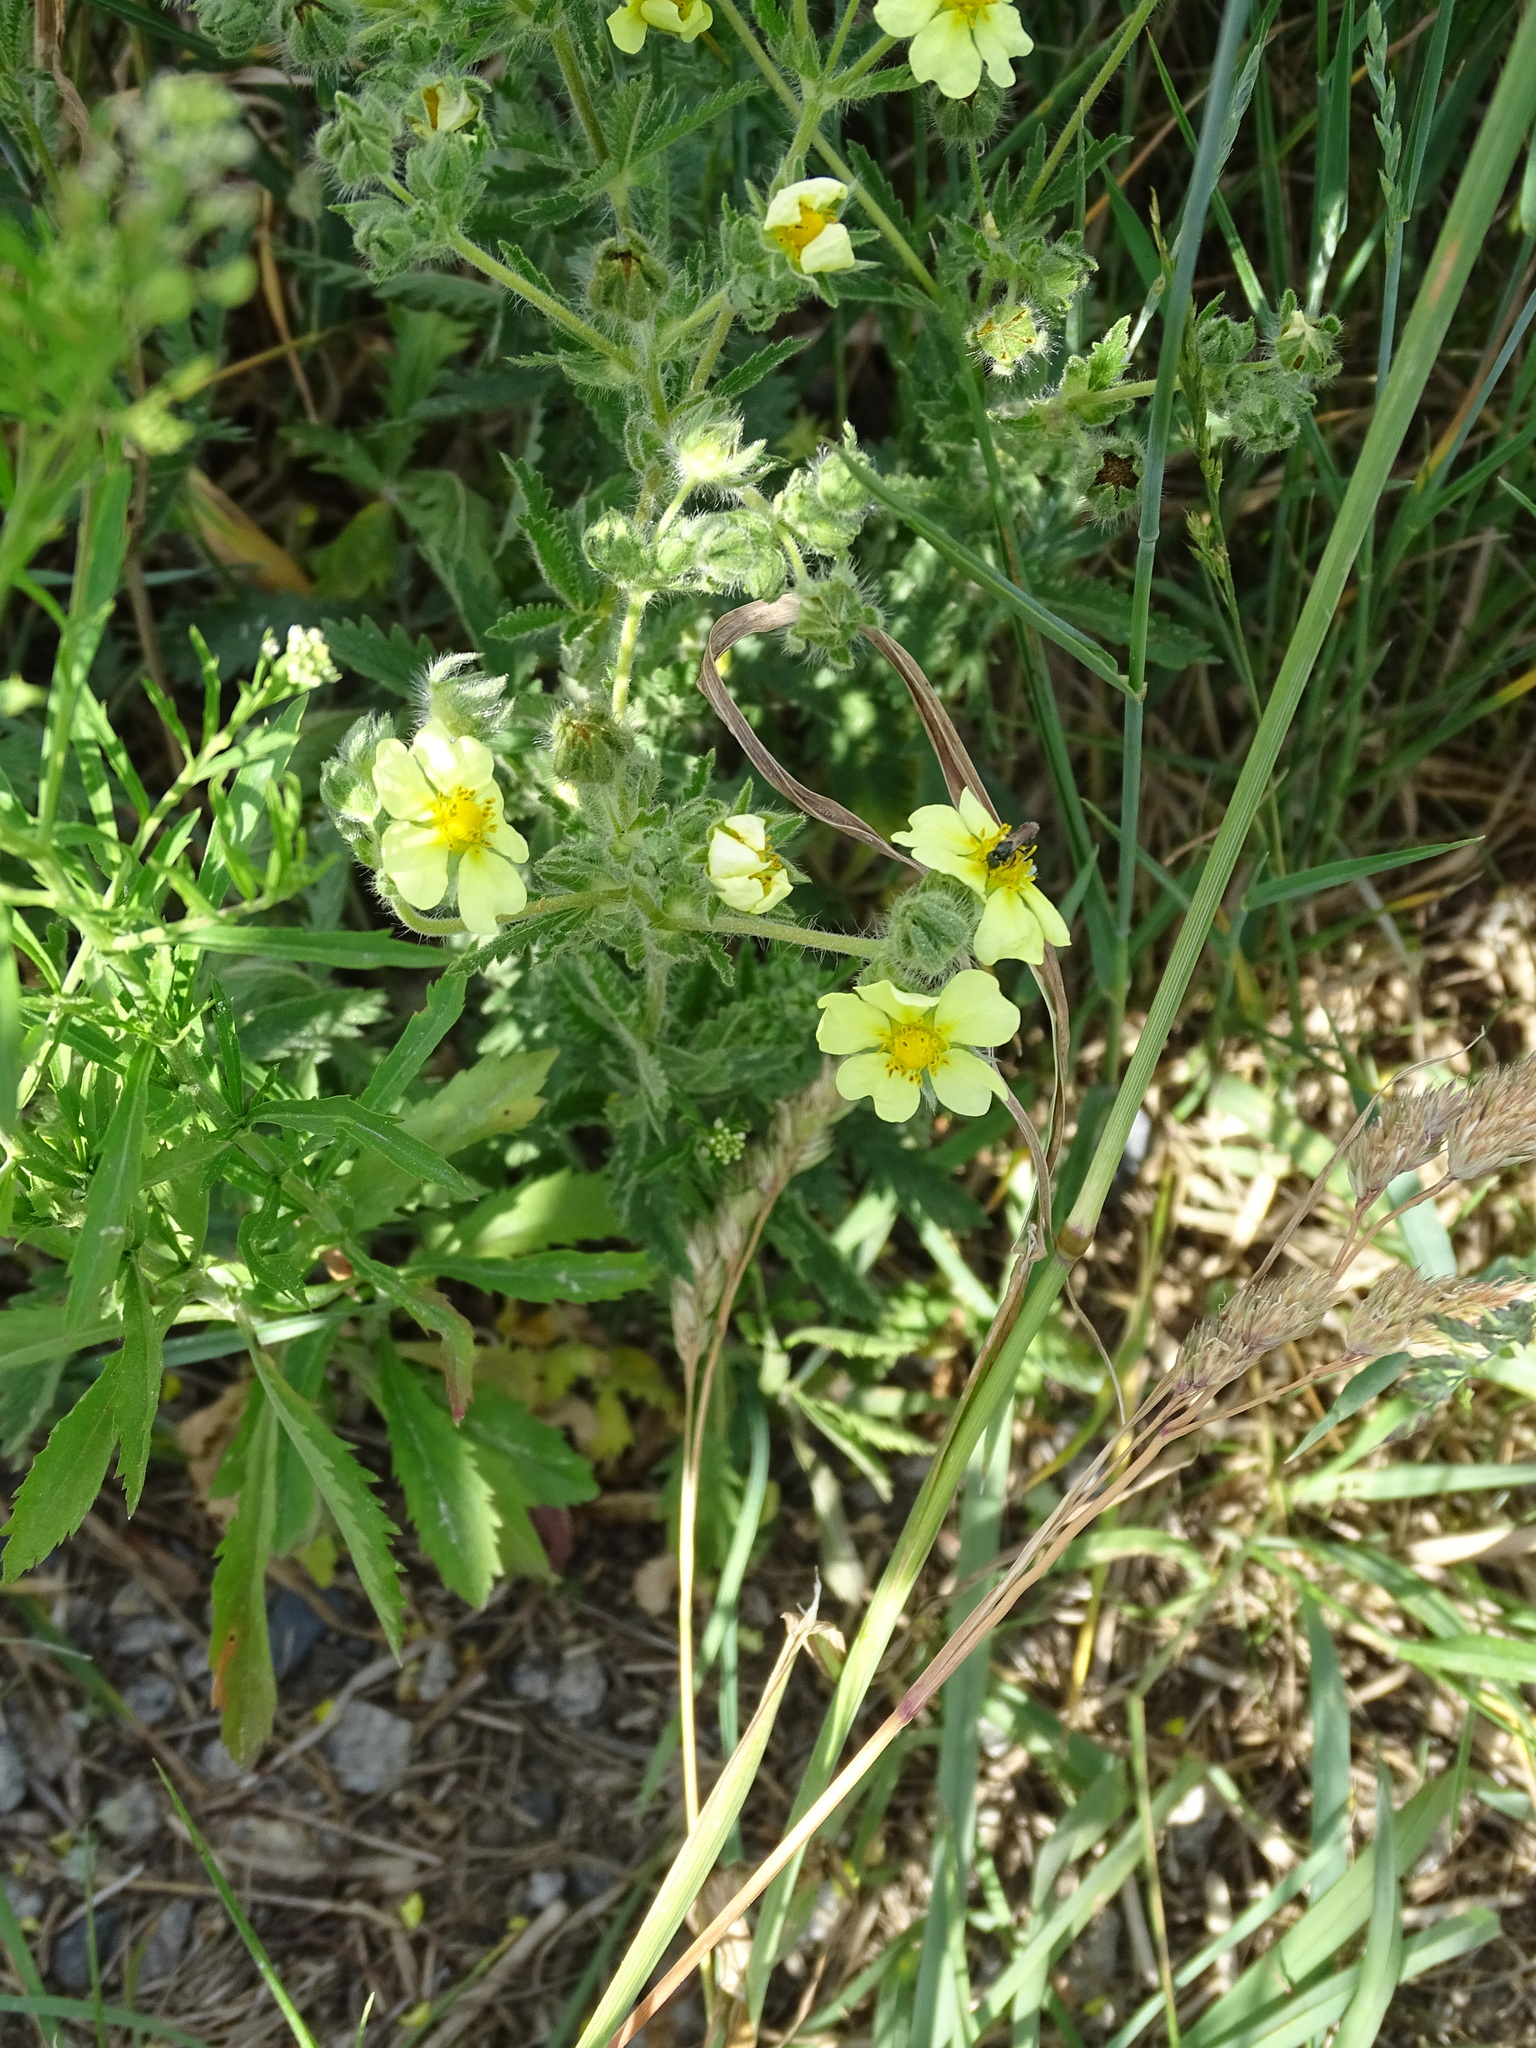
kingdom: Plantae
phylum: Tracheophyta
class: Magnoliopsida
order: Rosales
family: Rosaceae
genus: Potentilla
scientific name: Potentilla recta
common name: Sulphur cinquefoil
